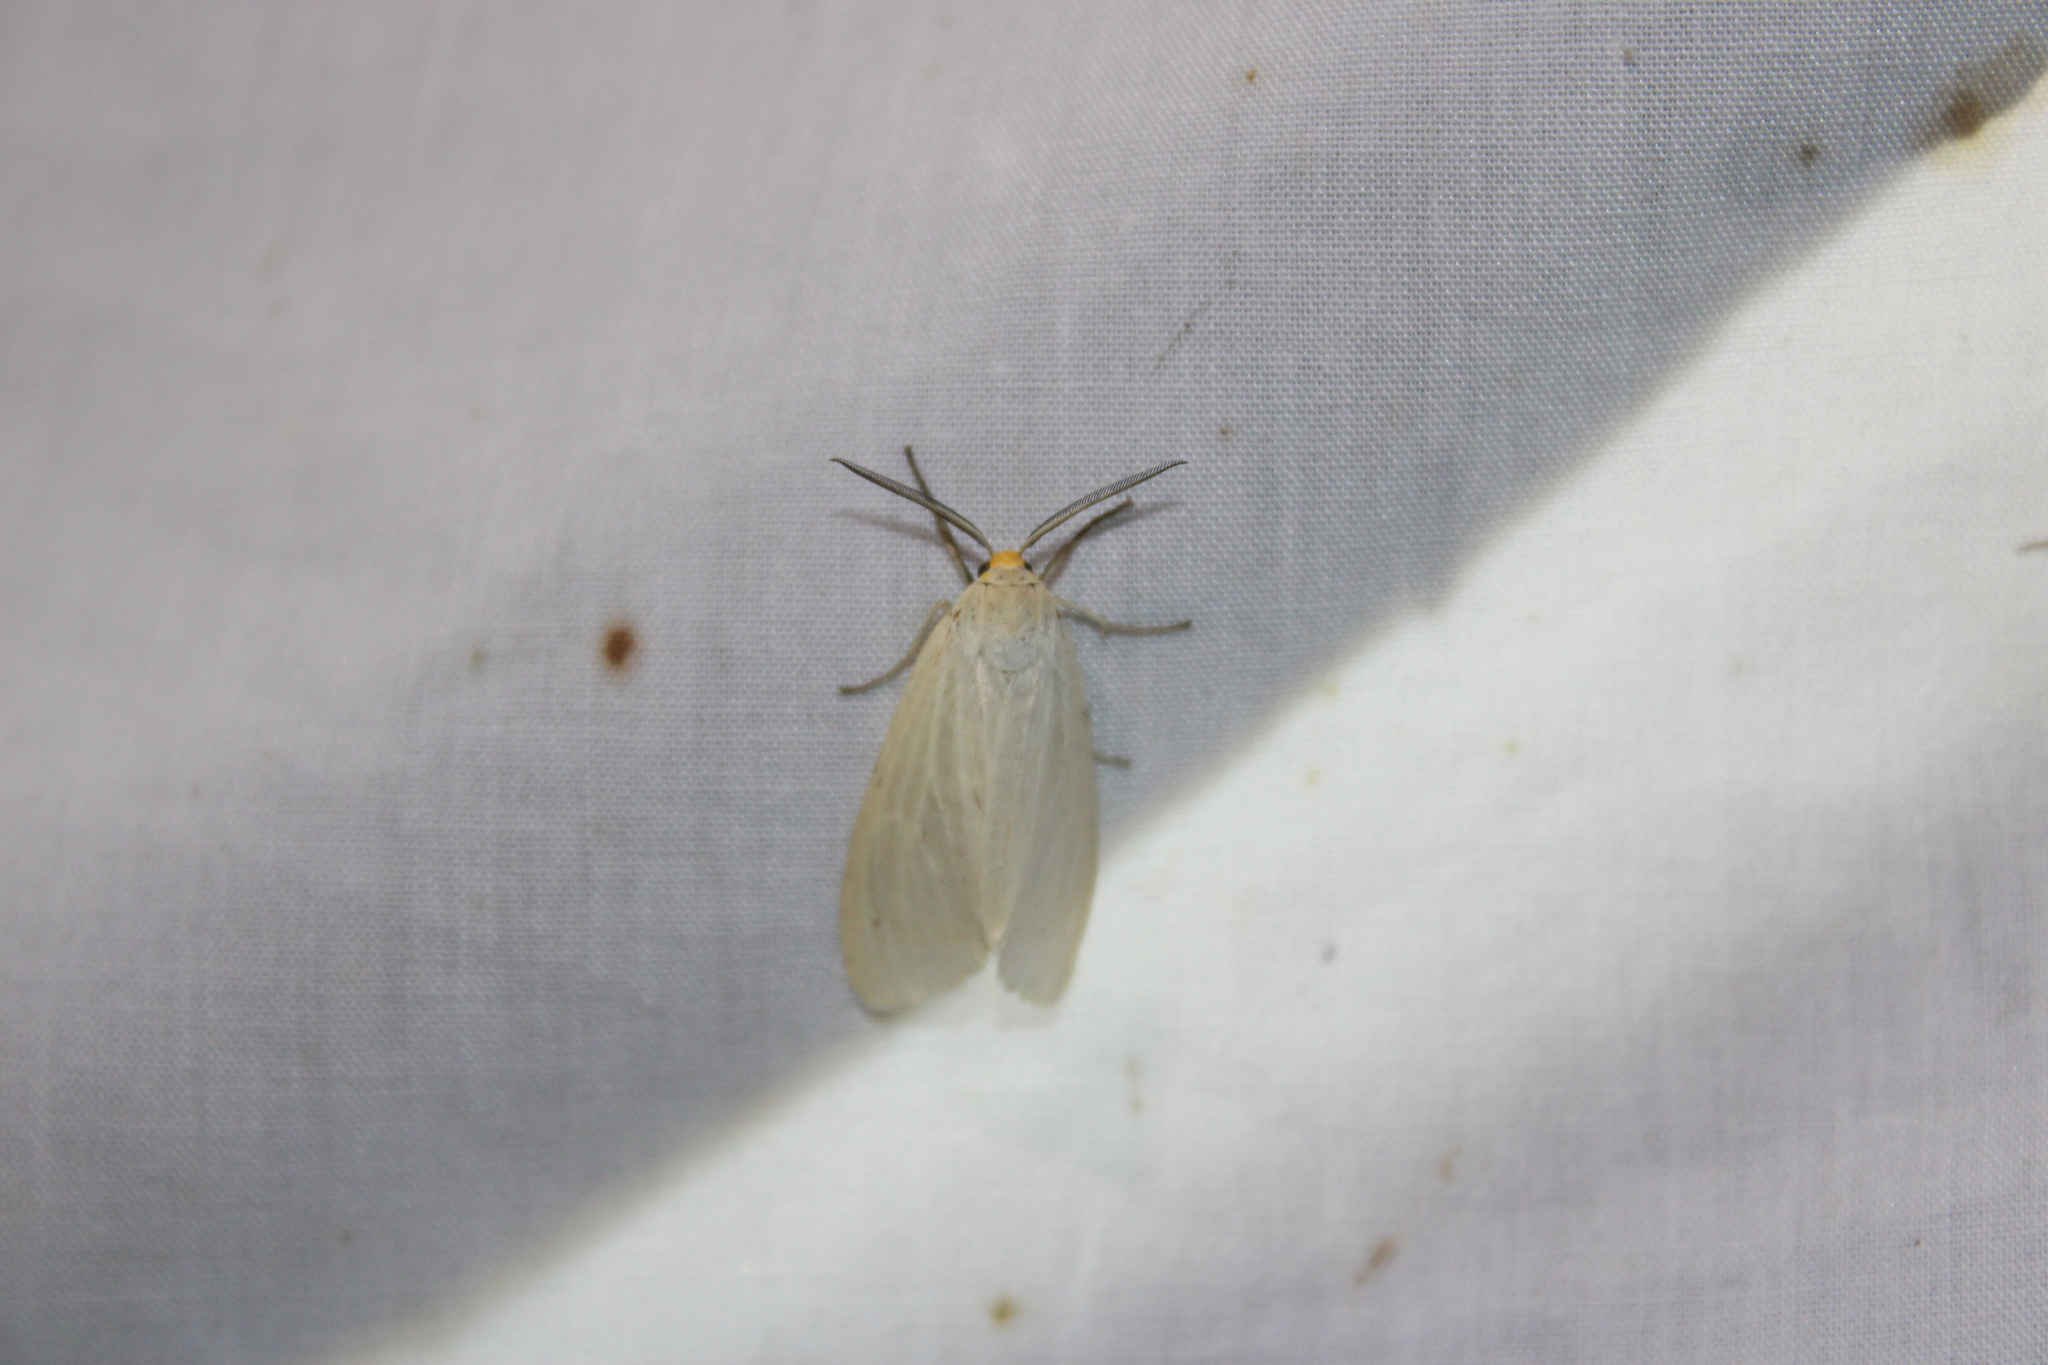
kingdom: Animalia
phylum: Arthropoda
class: Insecta
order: Lepidoptera
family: Erebidae
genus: Cycnia
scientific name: Cycnia oregonensis
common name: Oregon cycnia moth
